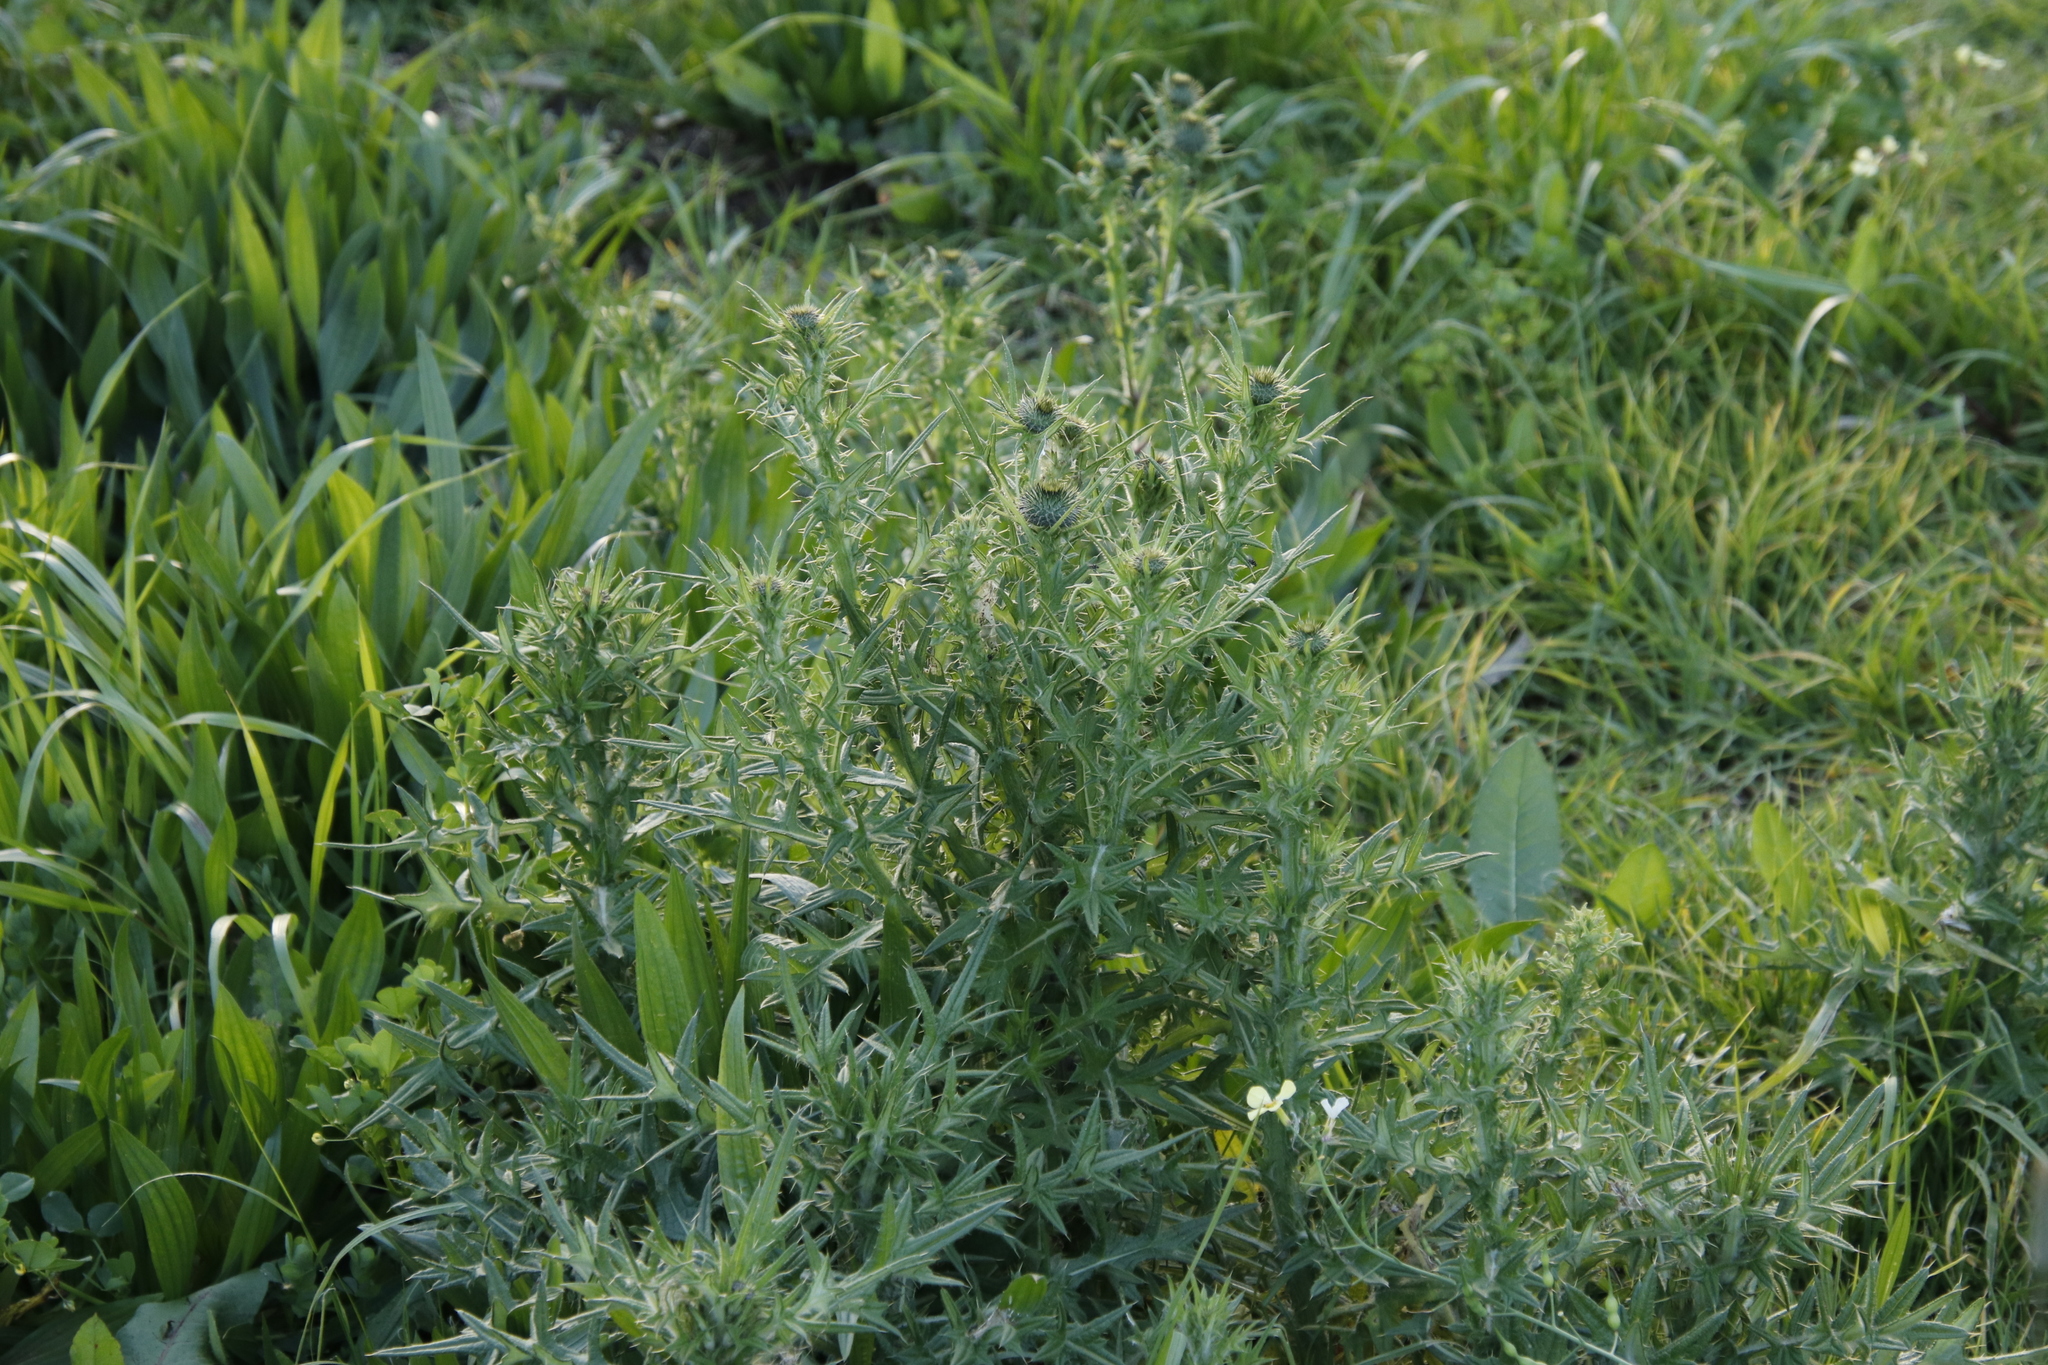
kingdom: Plantae
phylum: Tracheophyta
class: Magnoliopsida
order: Asterales
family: Asteraceae
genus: Cirsium
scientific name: Cirsium vulgare
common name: Bull thistle
